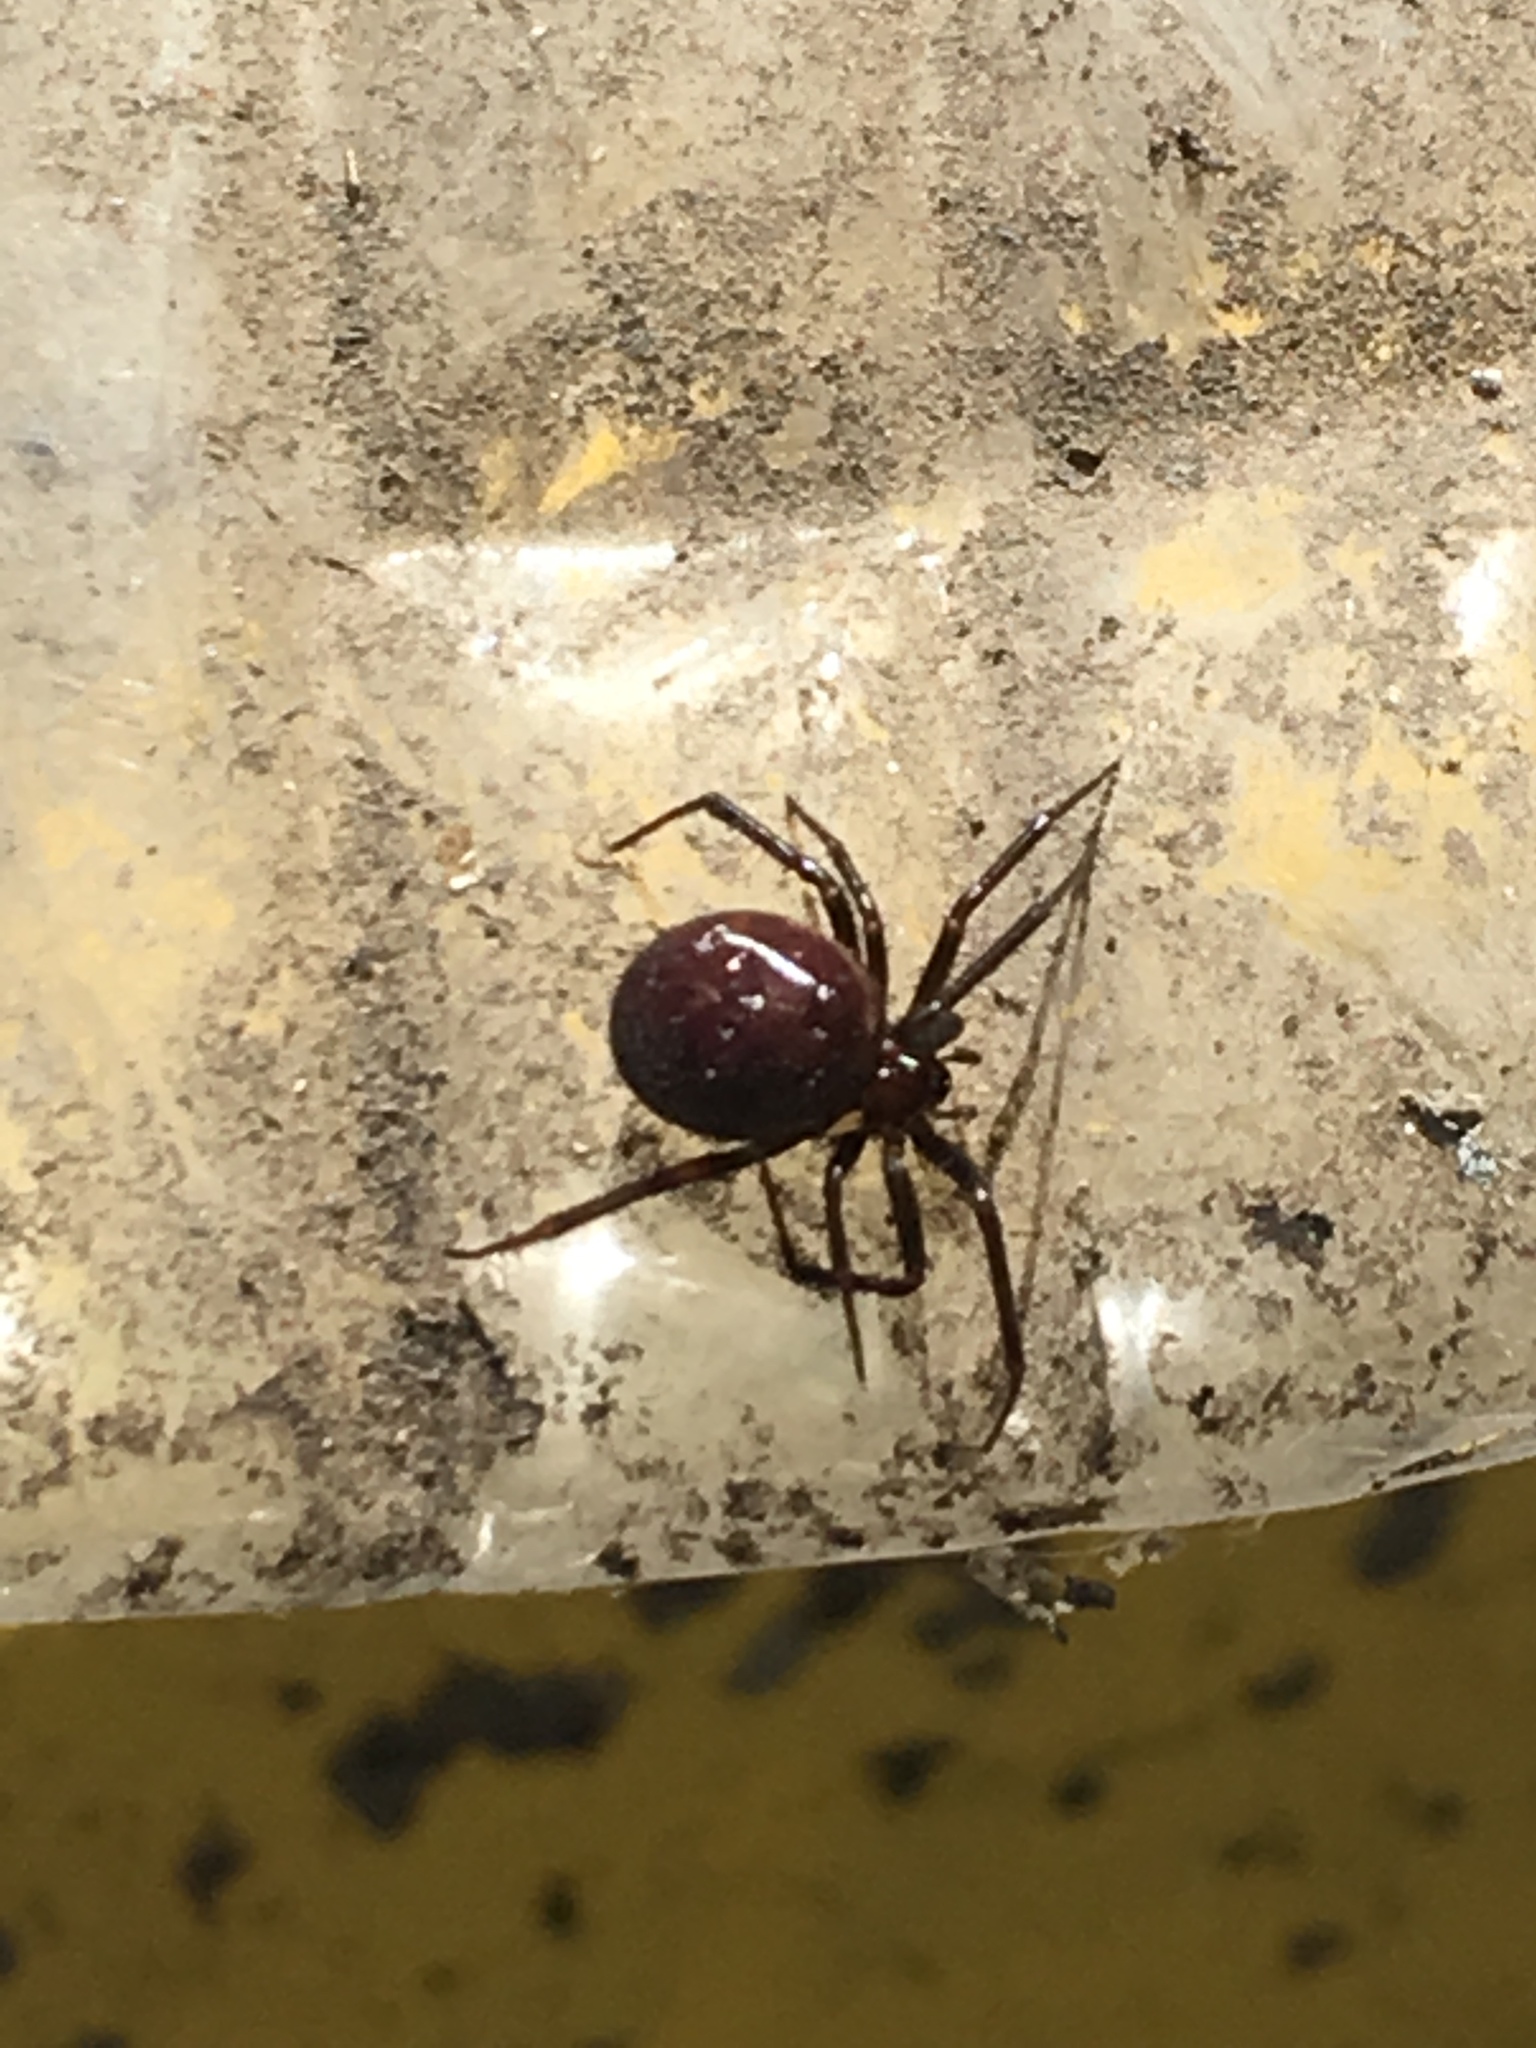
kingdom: Animalia
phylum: Arthropoda
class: Arachnida
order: Araneae
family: Theridiidae
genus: Steatoda
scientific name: Steatoda grossa
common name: False black widow
